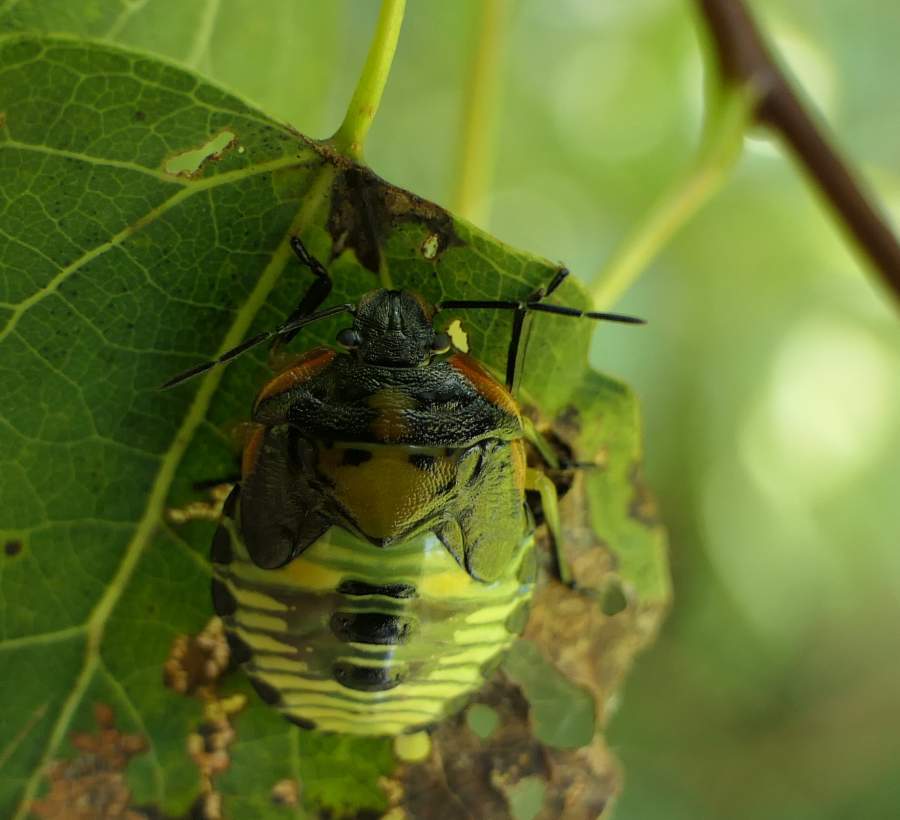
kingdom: Animalia
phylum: Arthropoda
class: Insecta
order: Hemiptera
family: Pentatomidae
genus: Chinavia
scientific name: Chinavia hilaris
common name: Green stink bug
